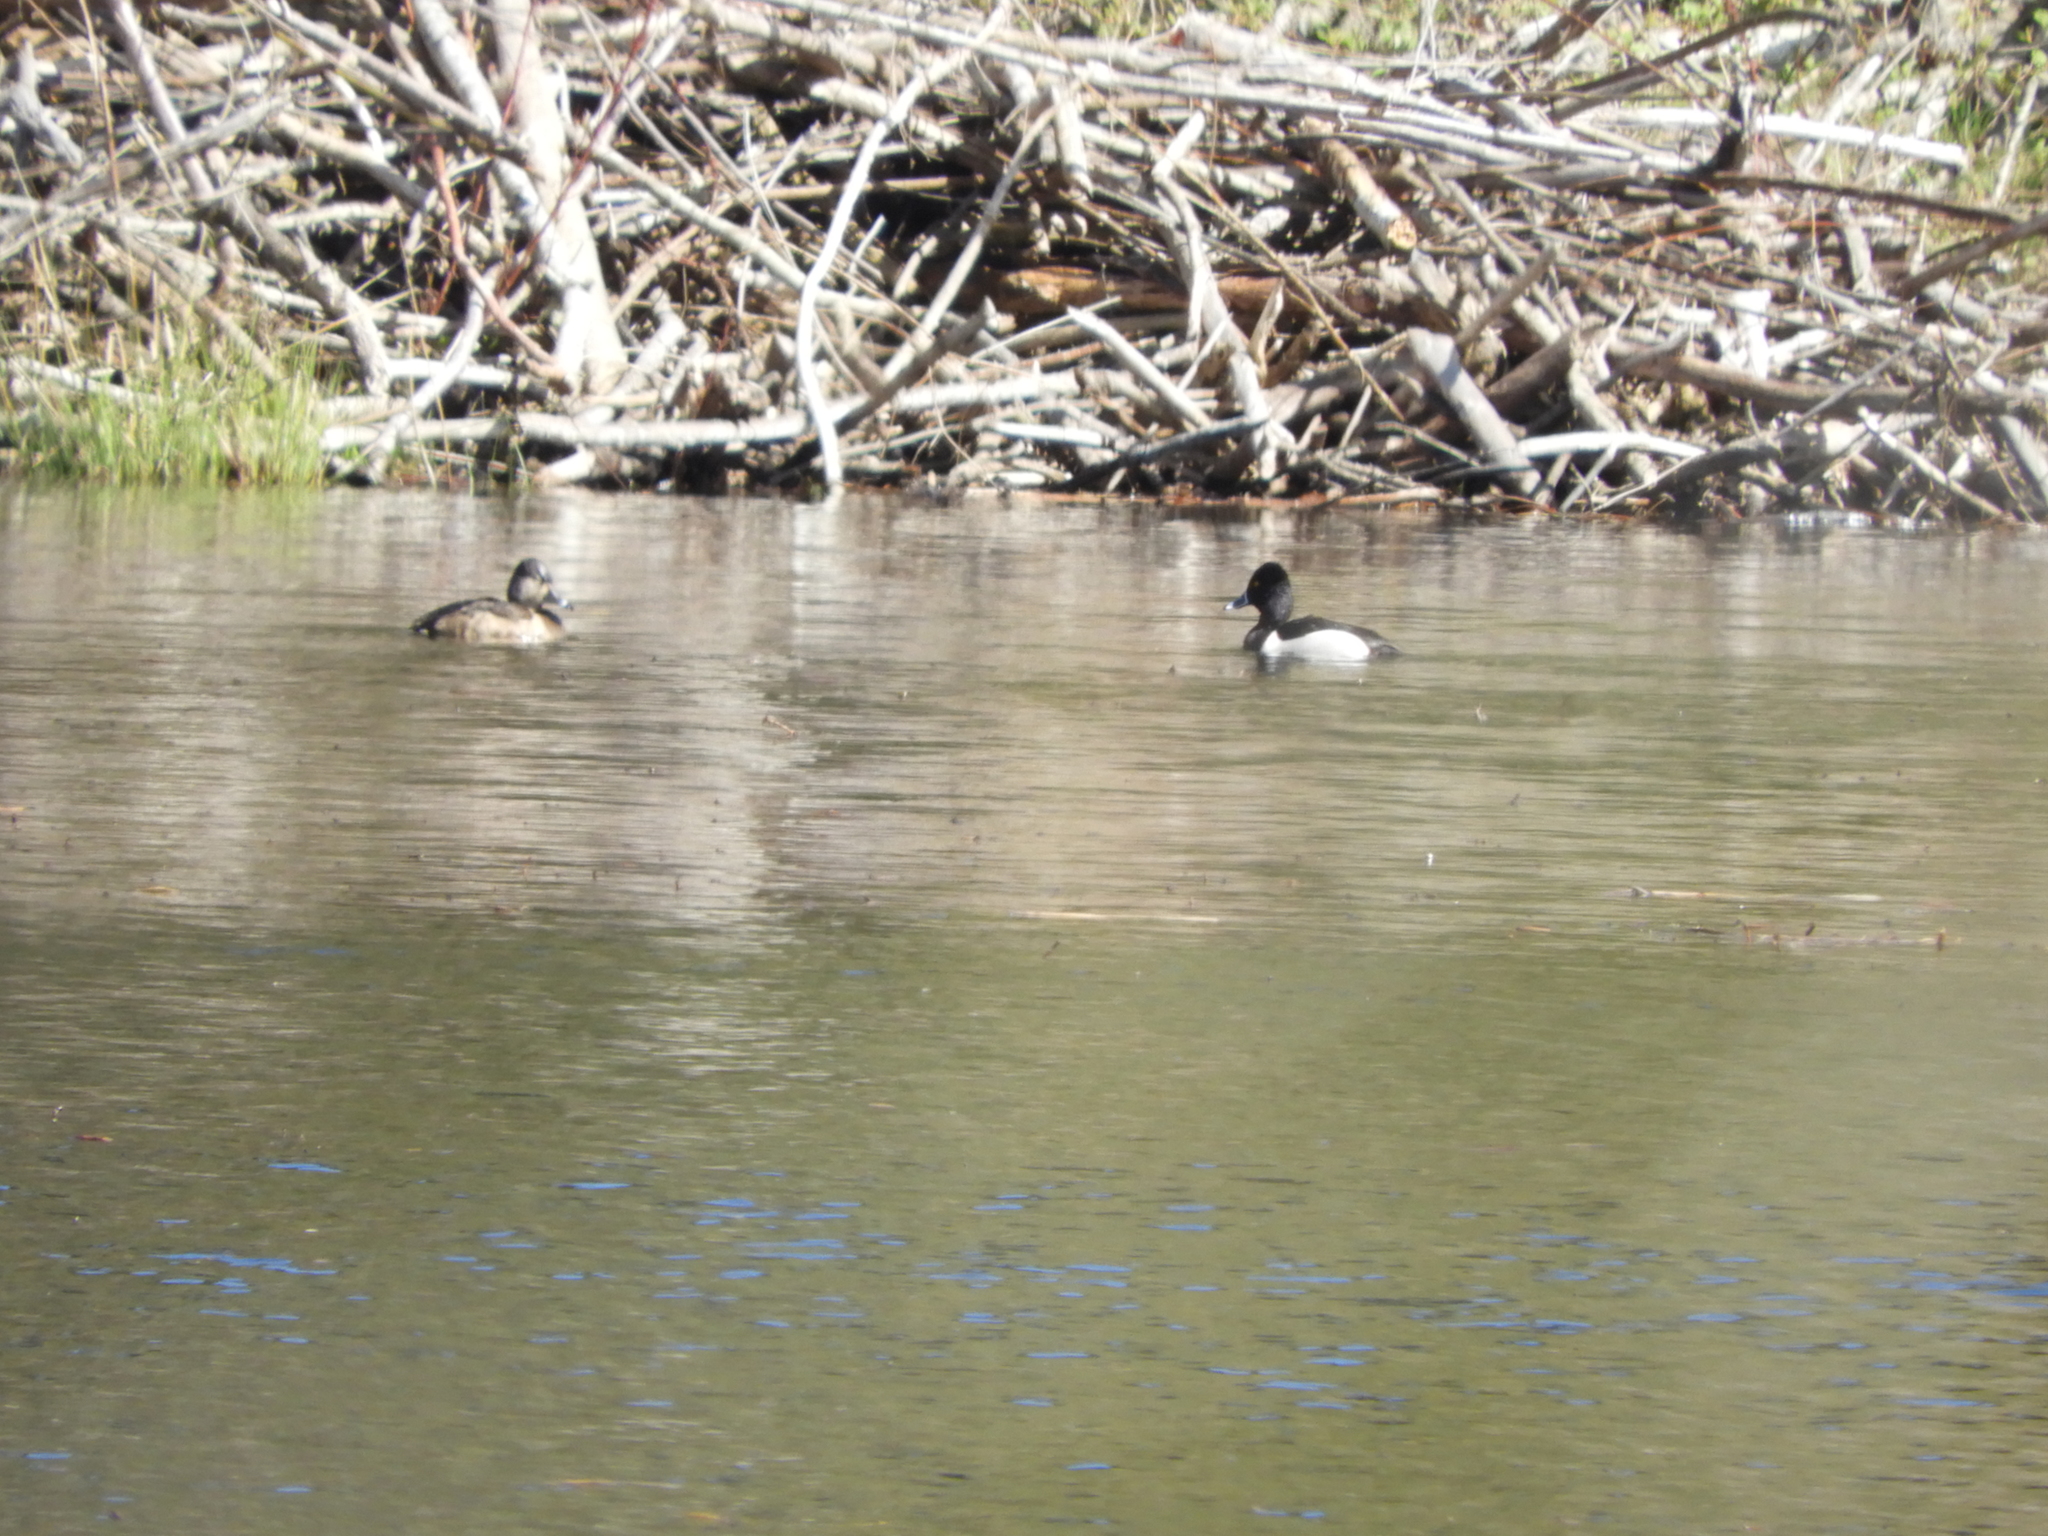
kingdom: Animalia
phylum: Chordata
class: Aves
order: Anseriformes
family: Anatidae
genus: Aythya
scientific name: Aythya collaris
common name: Ring-necked duck
